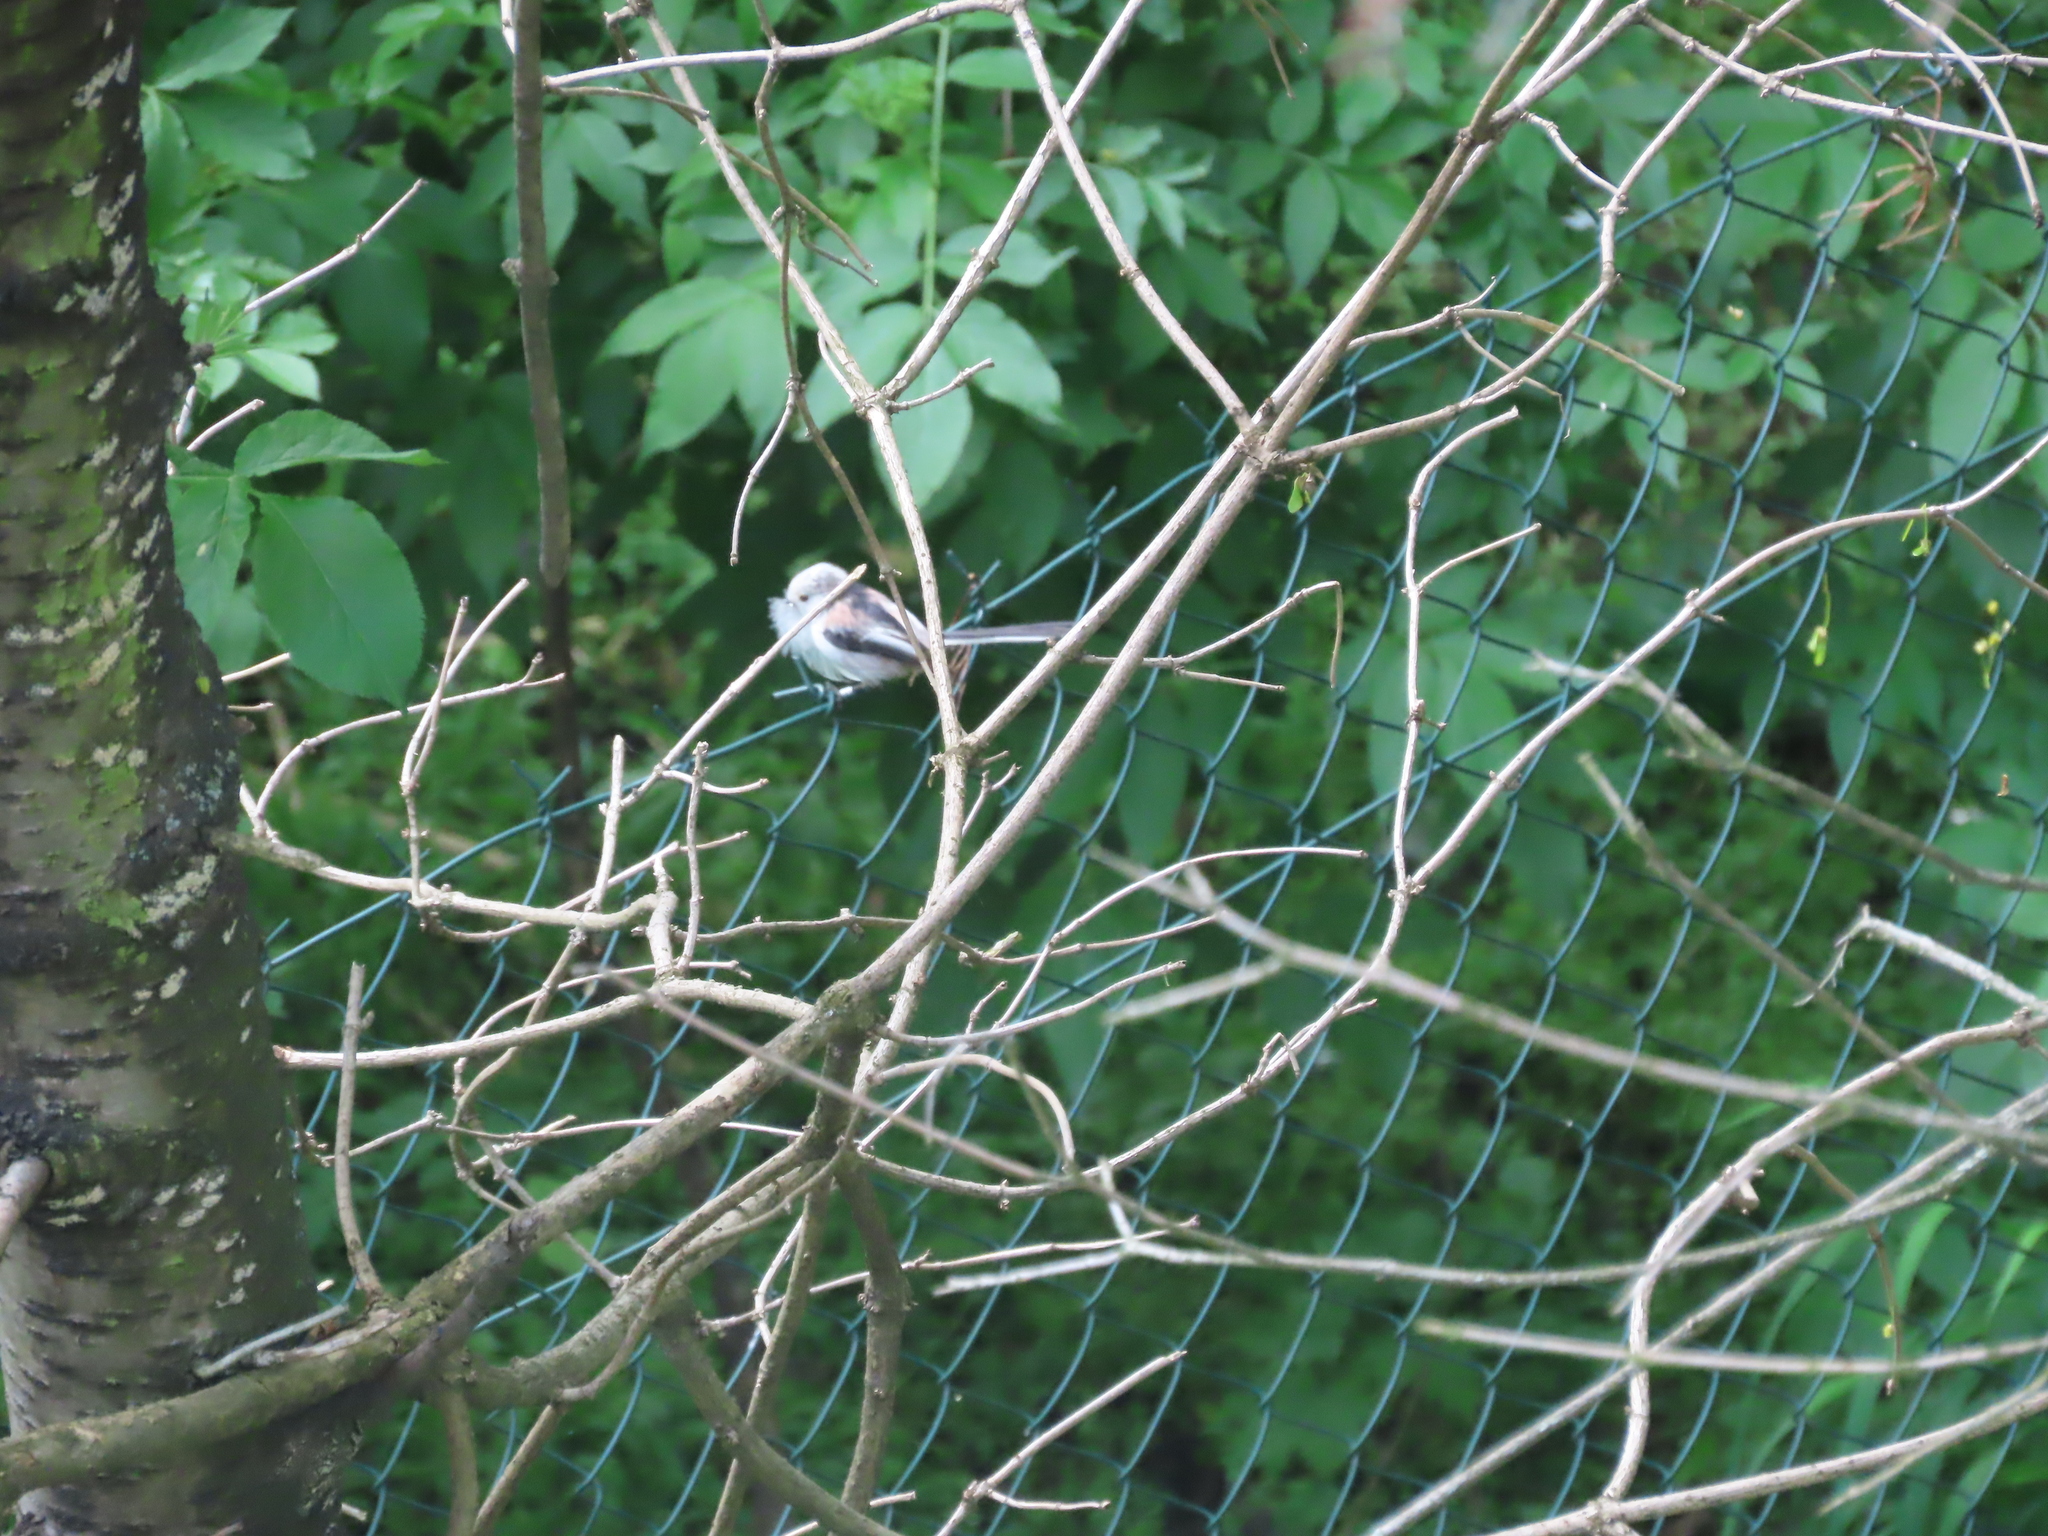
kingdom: Animalia
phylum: Chordata
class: Aves
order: Passeriformes
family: Aegithalidae
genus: Aegithalos
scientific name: Aegithalos caudatus
